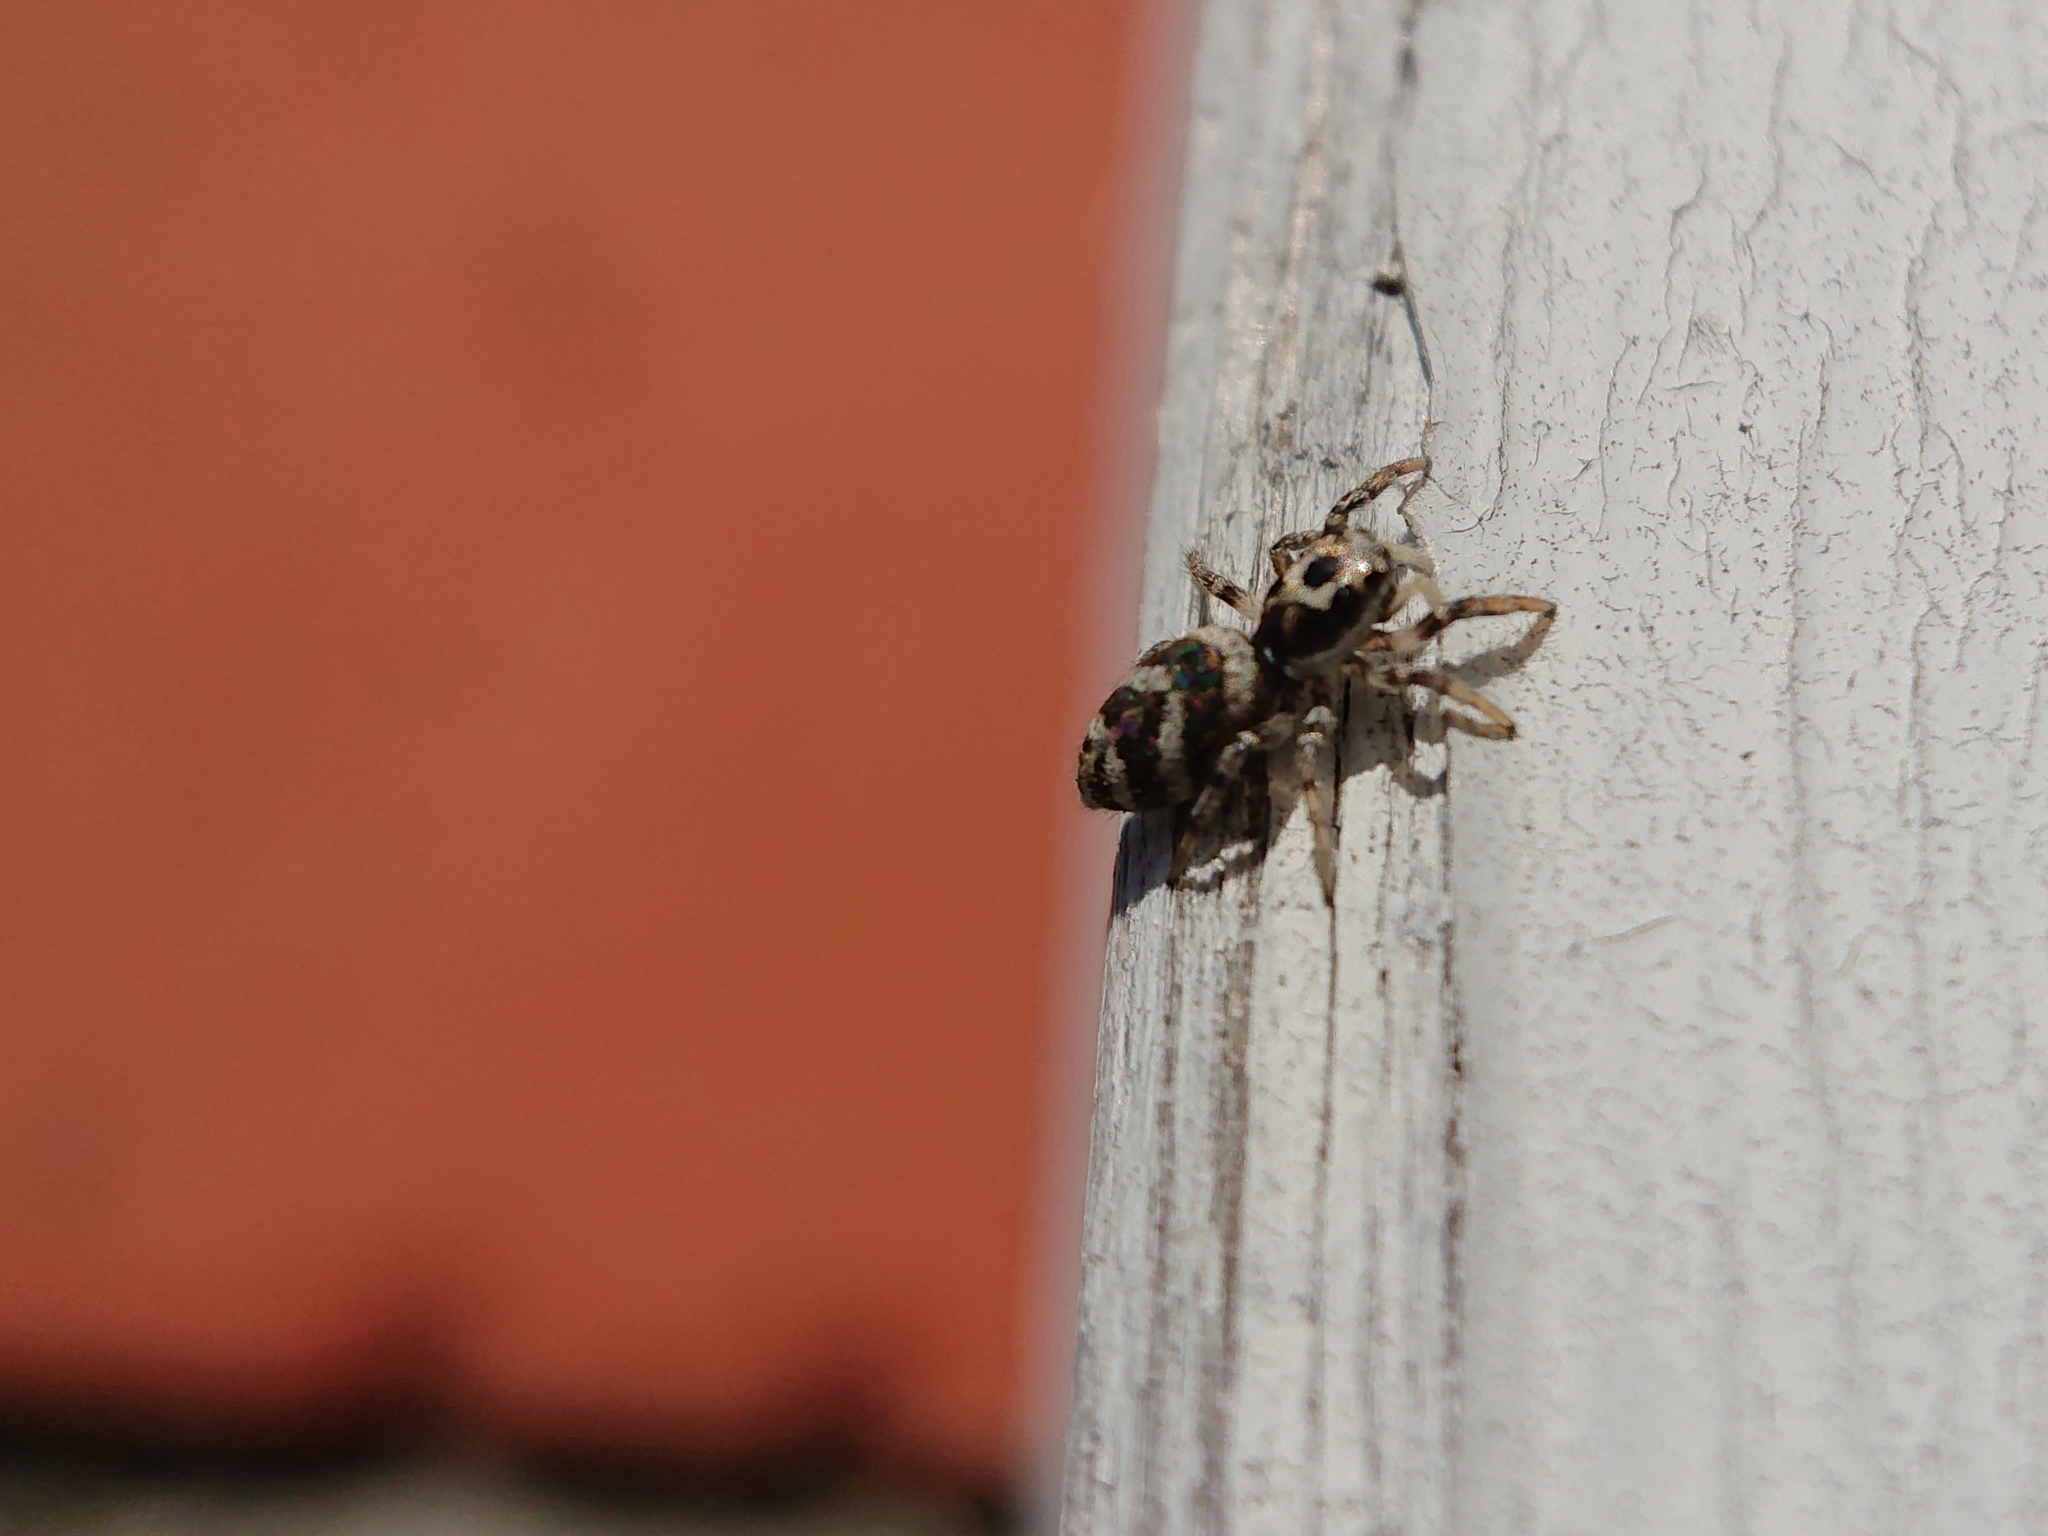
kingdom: Animalia
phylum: Arthropoda
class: Arachnida
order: Araneae
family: Salticidae
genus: Salticus
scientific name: Salticus scenicus
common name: Zebra jumper
